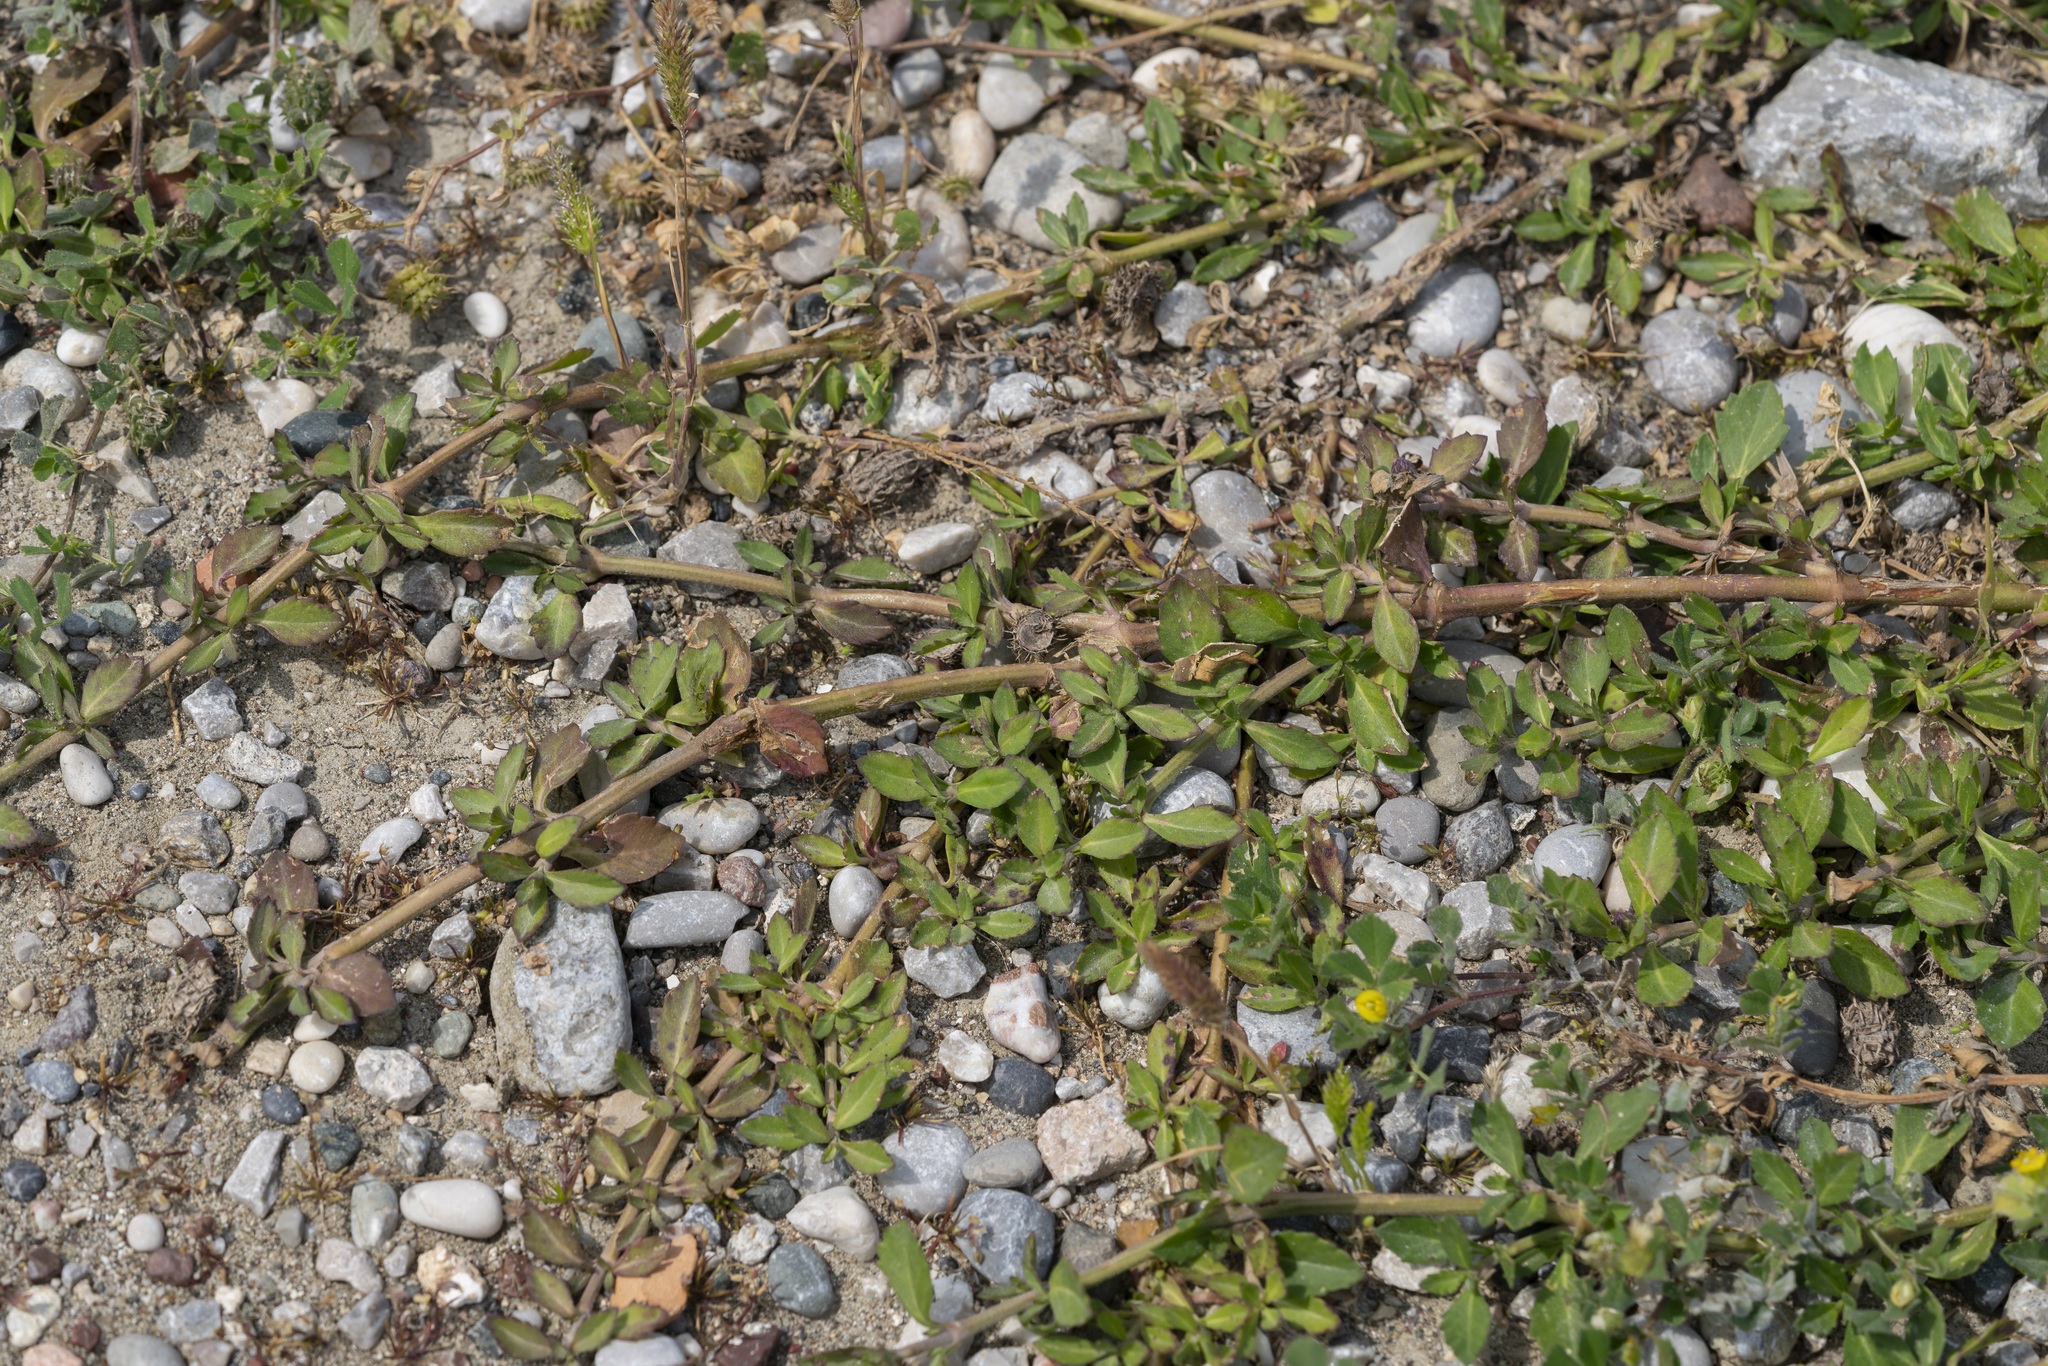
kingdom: Plantae
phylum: Tracheophyta
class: Magnoliopsida
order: Lamiales
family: Verbenaceae
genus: Phyla
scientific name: Phyla nodiflora
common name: Frogfruit
